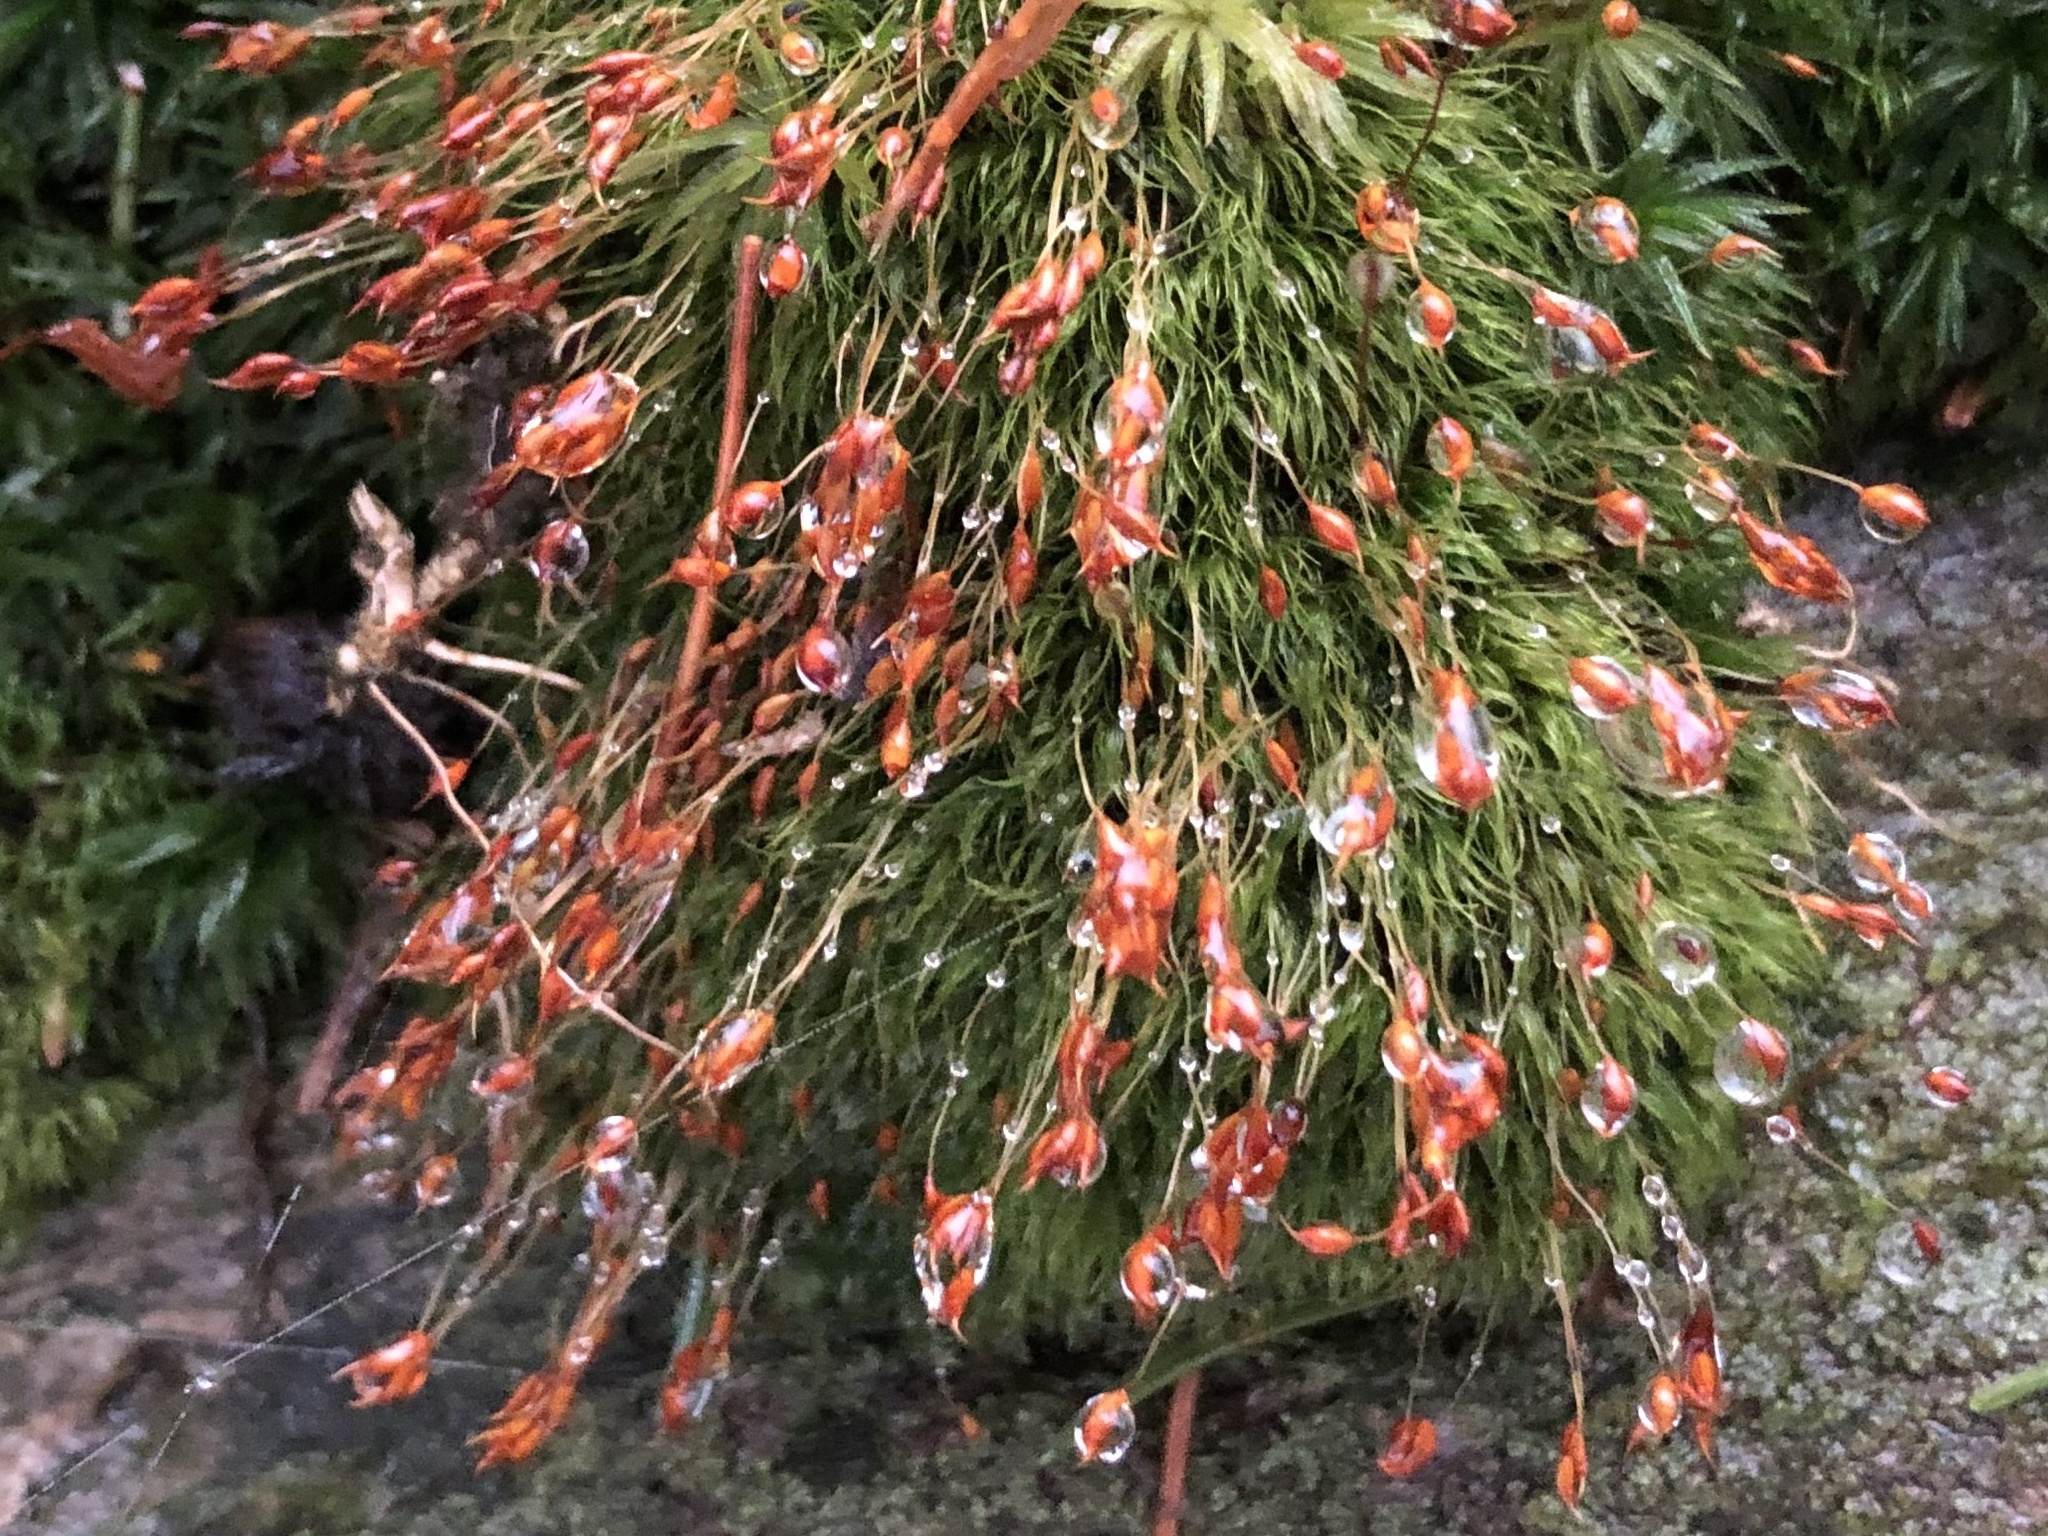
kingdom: Plantae
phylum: Bryophyta
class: Bryopsida
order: Dicranales
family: Dicranellaceae
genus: Dicranella
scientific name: Dicranella heteromalla
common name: Silky forklet moss
